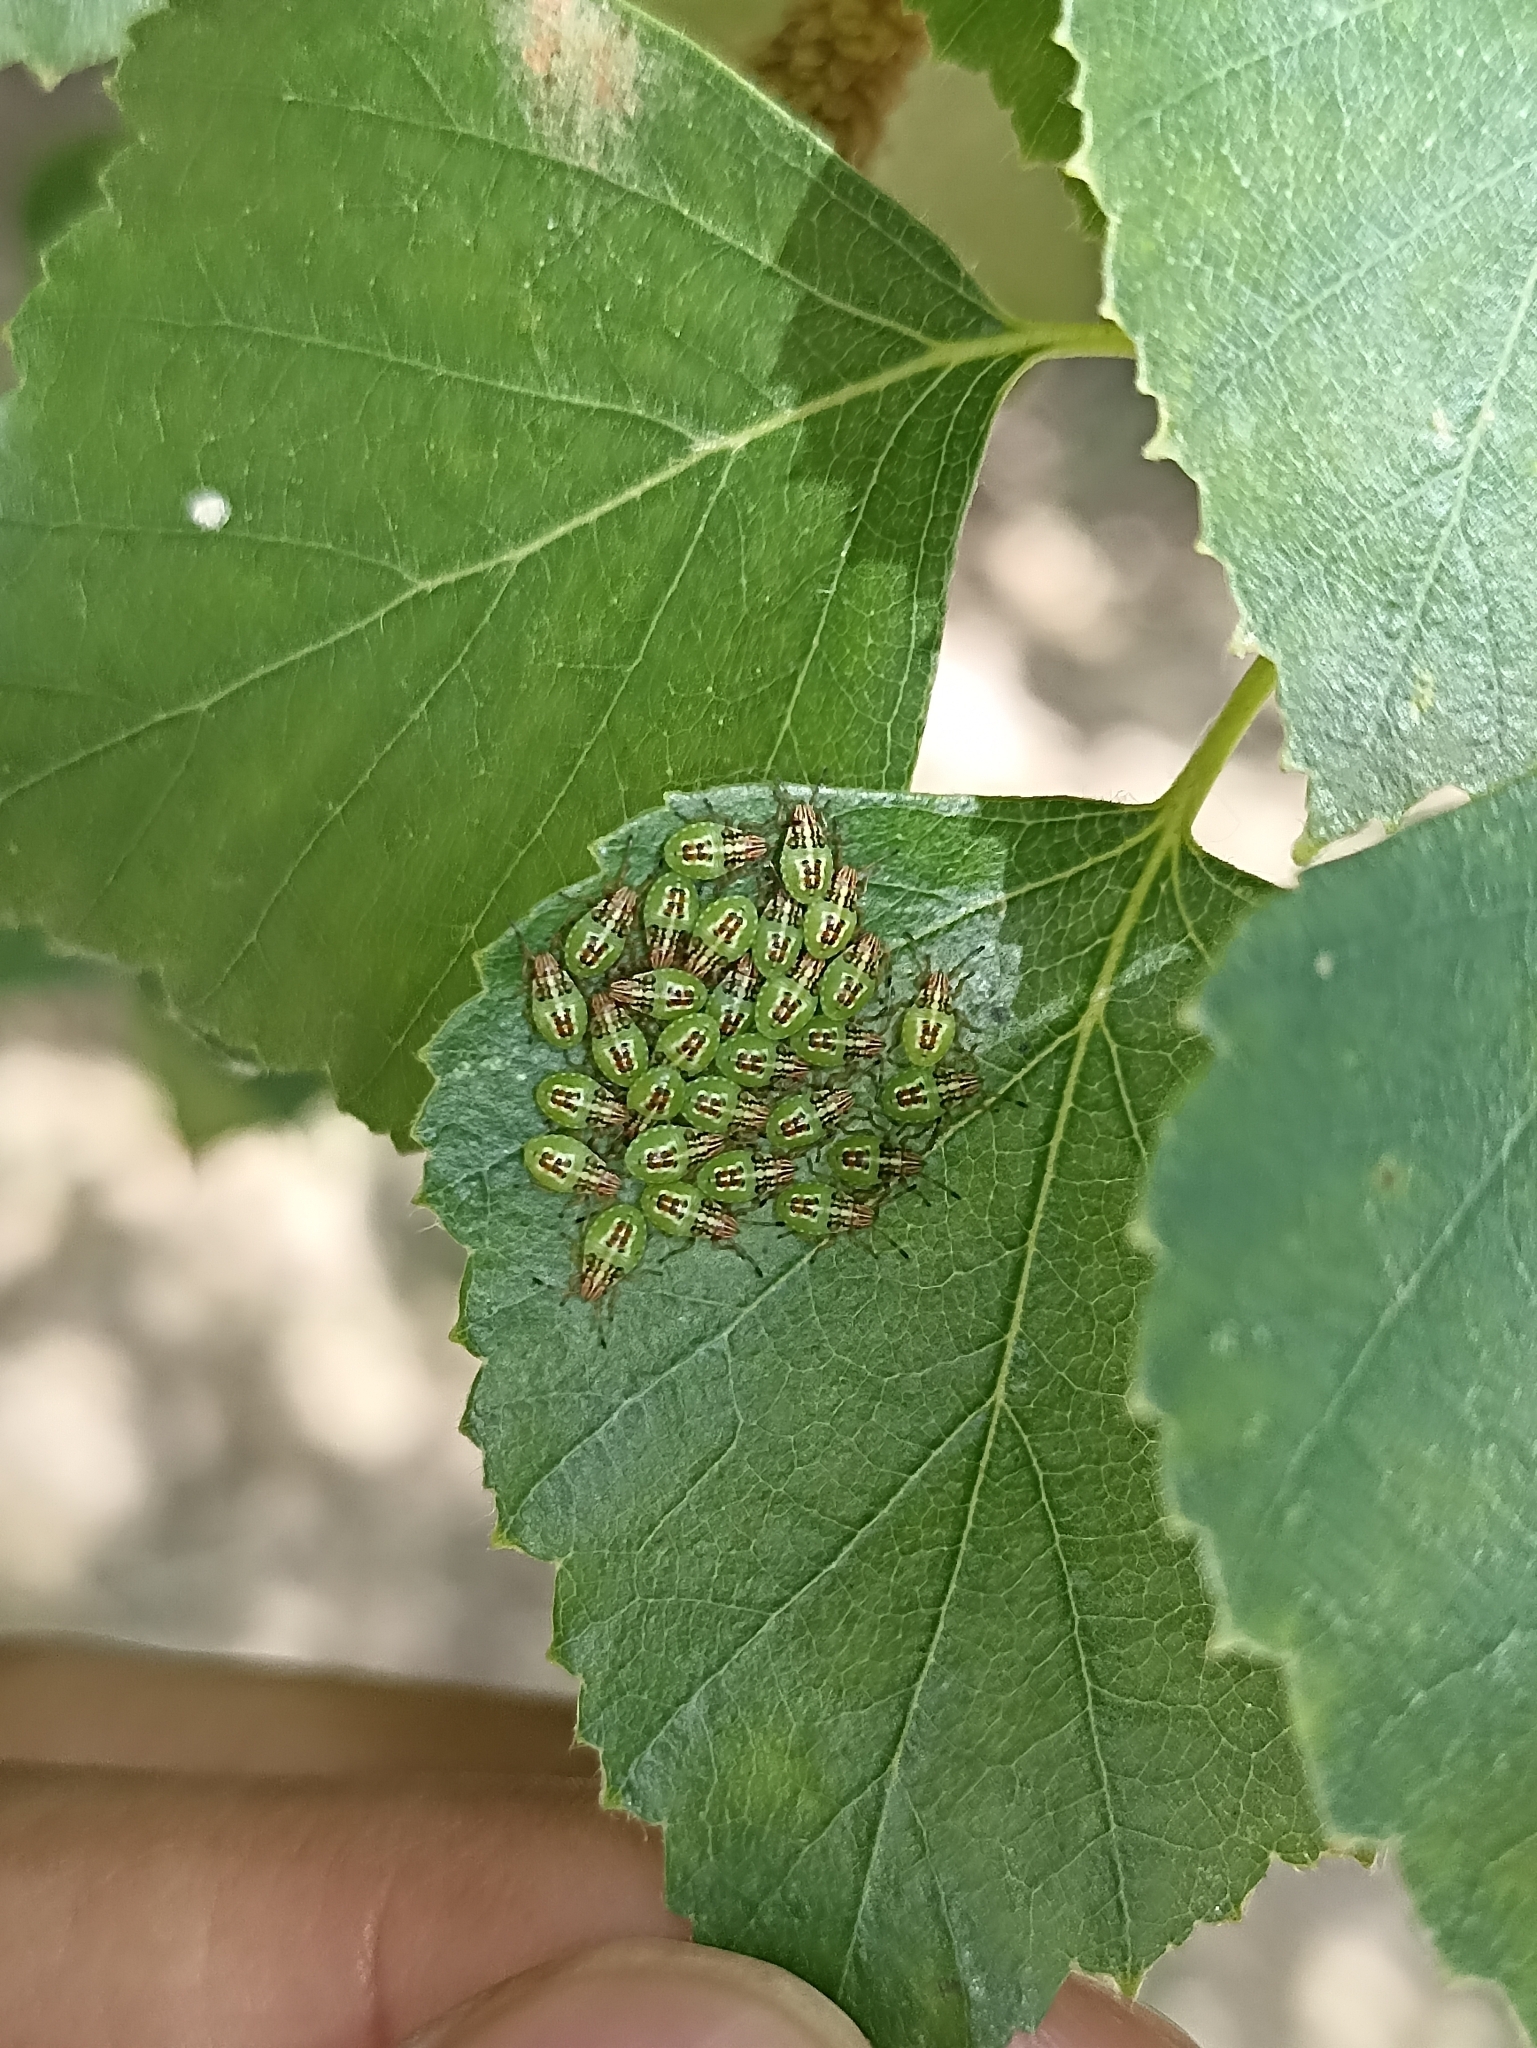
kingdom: Animalia
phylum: Arthropoda
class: Insecta
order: Hemiptera
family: Acanthosomatidae
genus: Elasmucha
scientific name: Elasmucha grisea
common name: Parent bug
